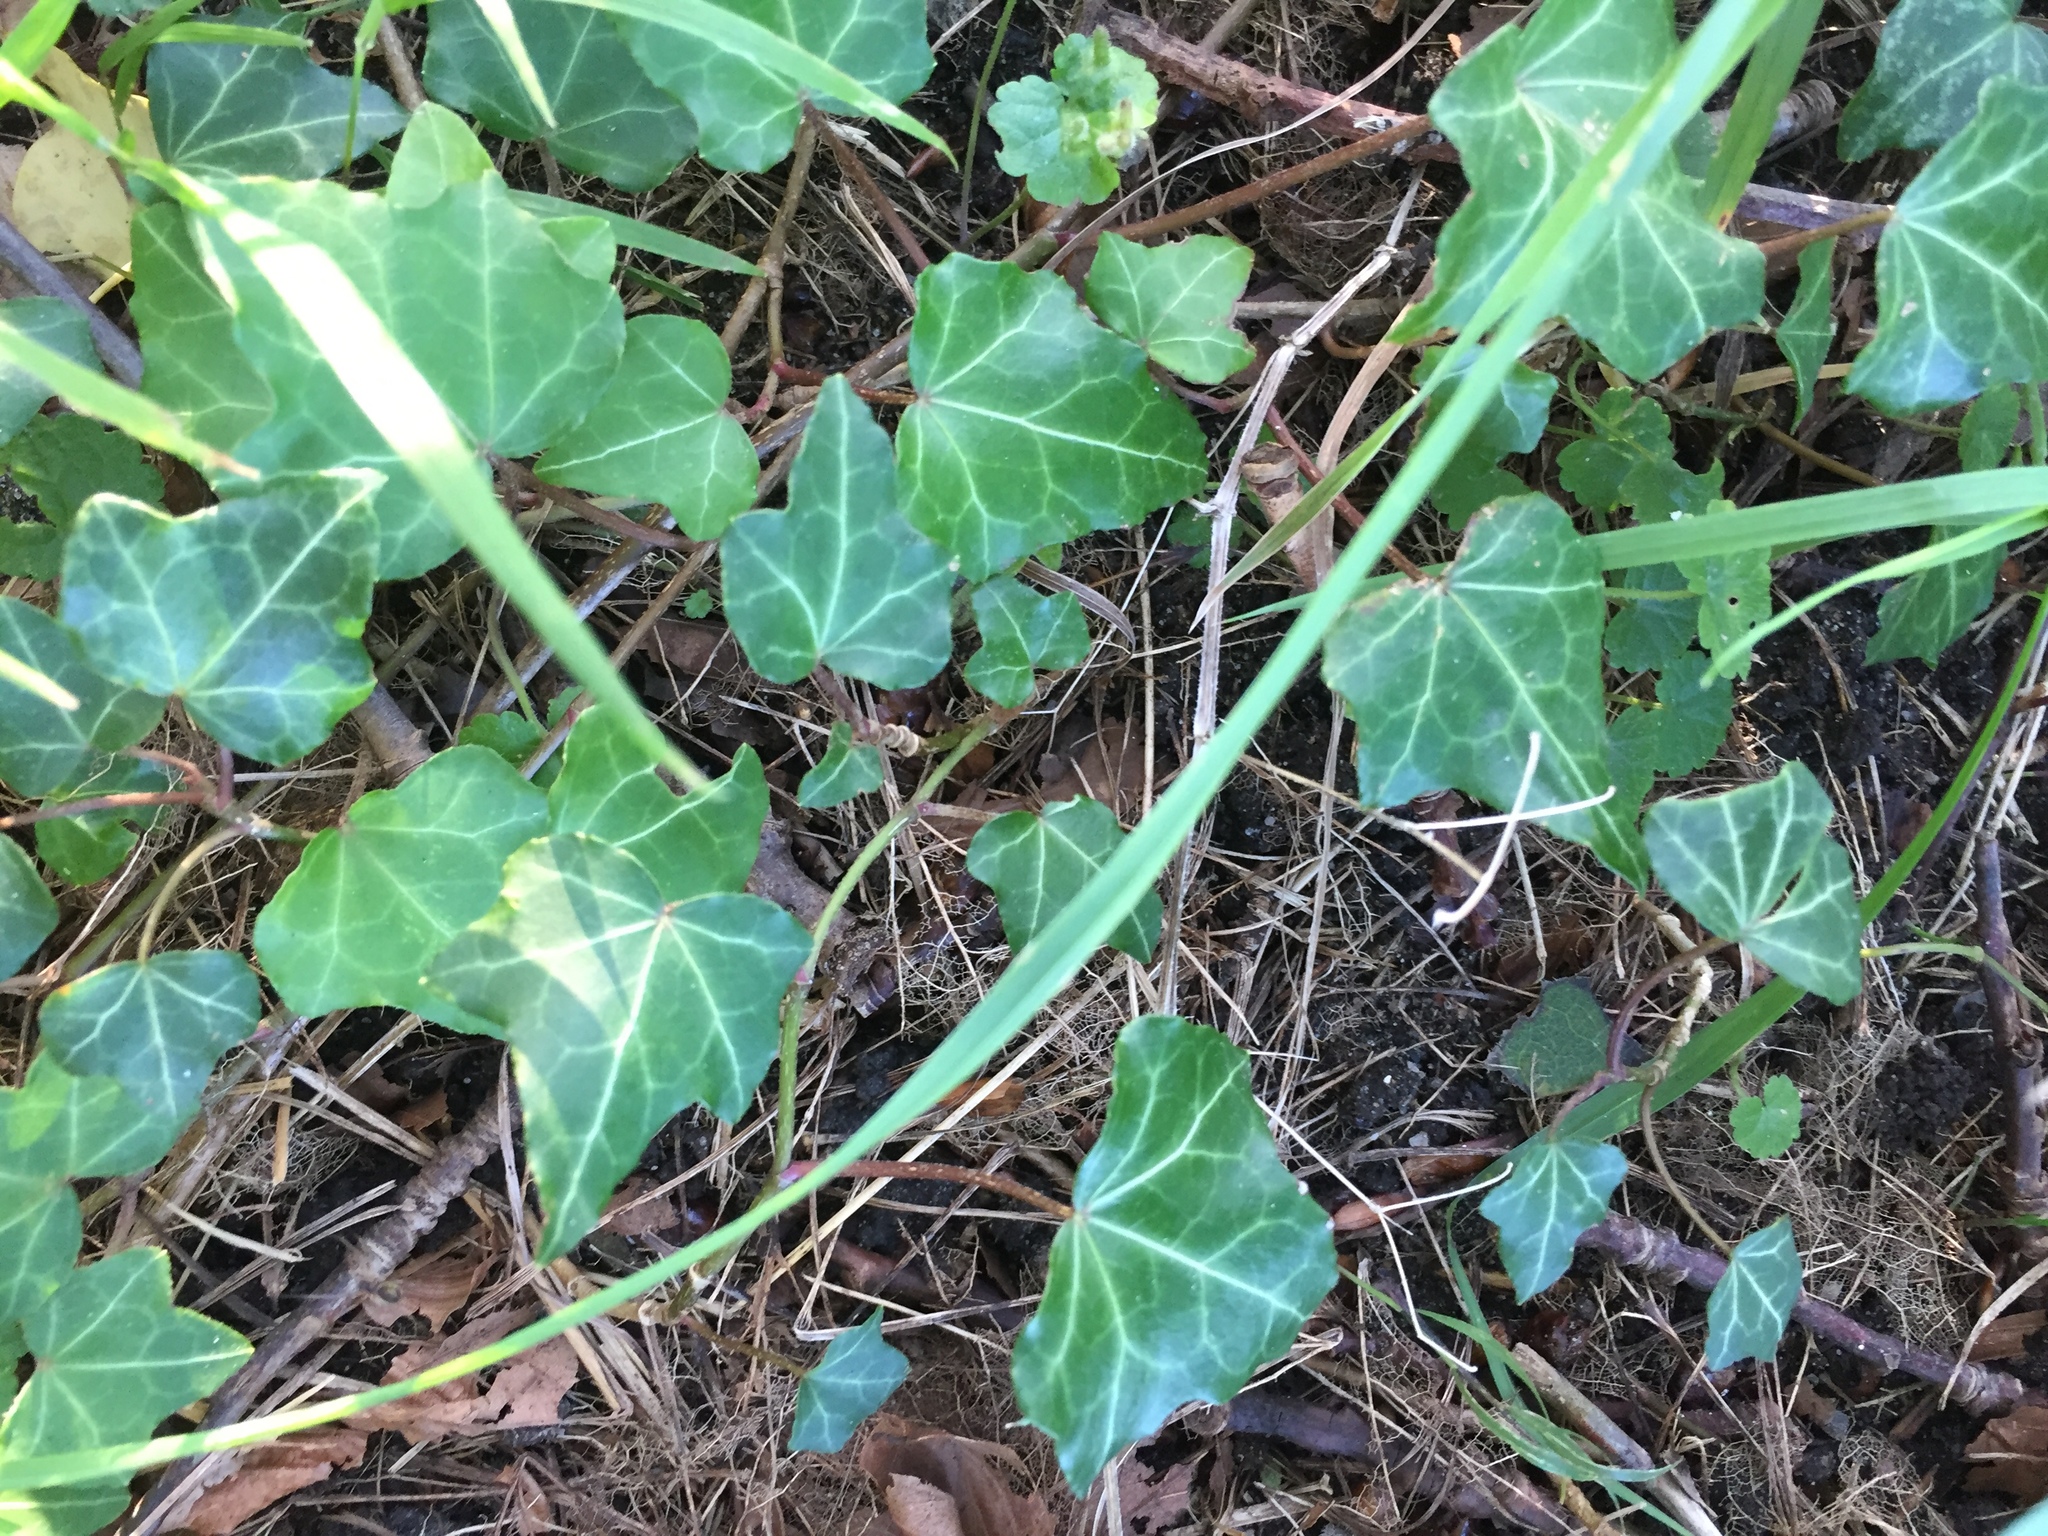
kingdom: Plantae
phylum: Tracheophyta
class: Magnoliopsida
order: Apiales
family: Araliaceae
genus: Hedera
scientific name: Hedera helix
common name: Ivy
